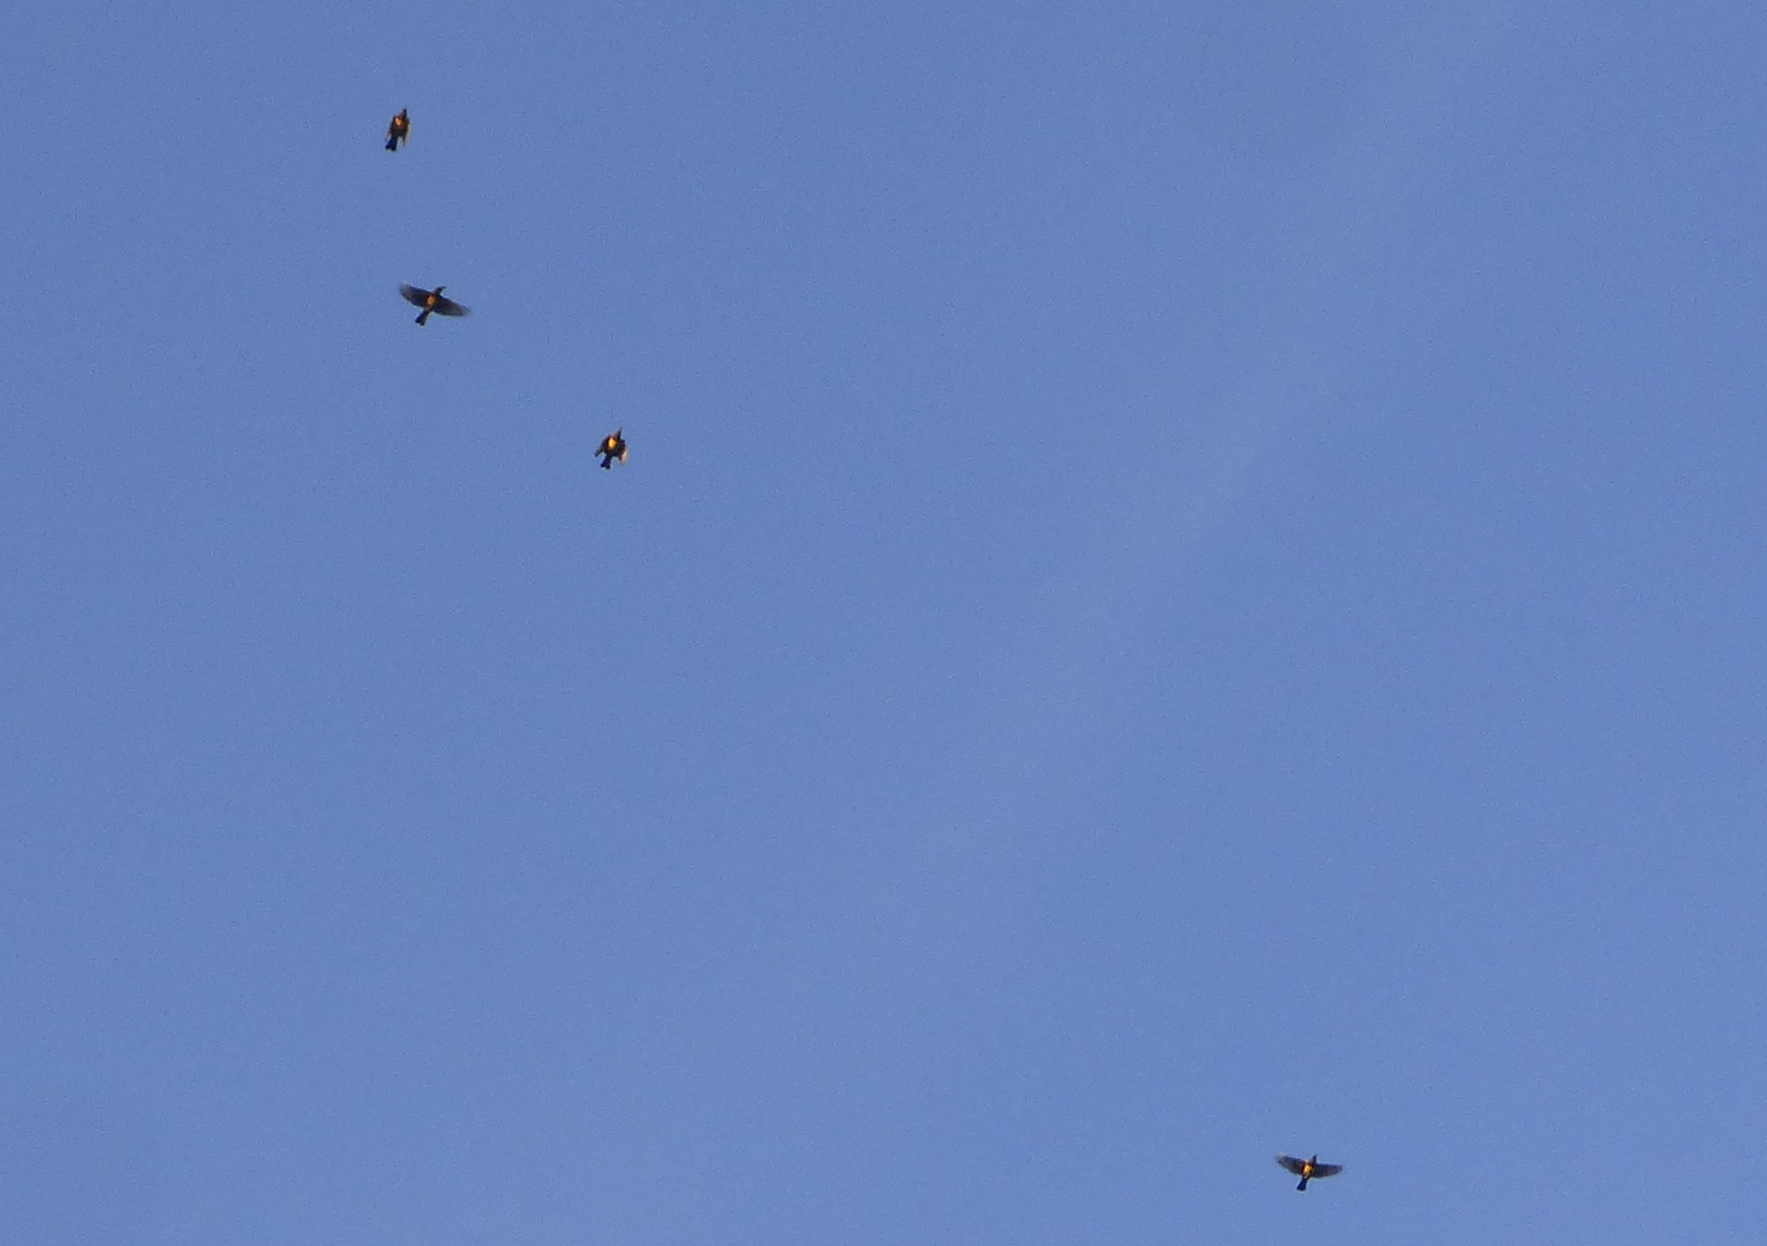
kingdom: Animalia
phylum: Chordata
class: Aves
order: Passeriformes
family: Icteridae
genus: Pseudoleistes
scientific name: Pseudoleistes virescens
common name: Brown-and-yellow marshbird
